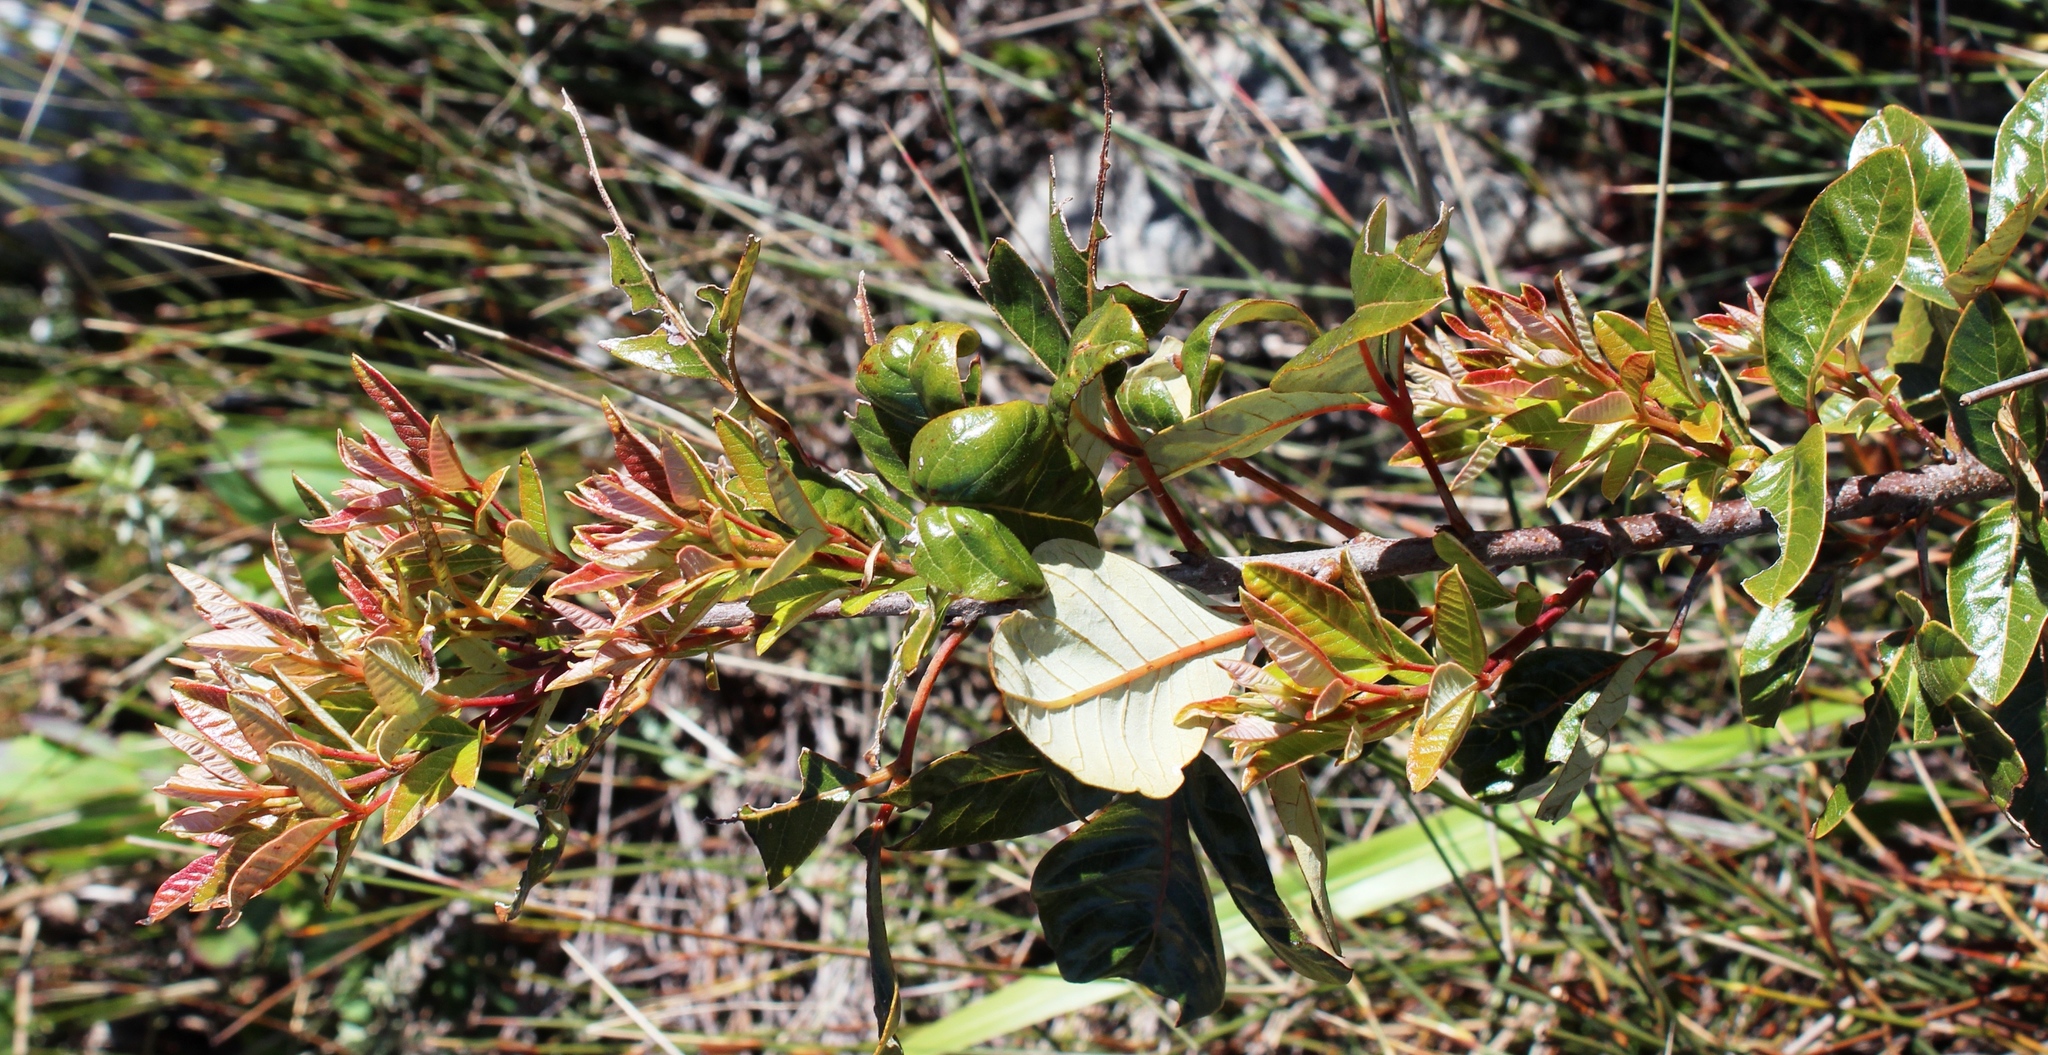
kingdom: Plantae
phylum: Tracheophyta
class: Magnoliopsida
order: Sapindales
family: Anacardiaceae
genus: Searsia
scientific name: Searsia tomentosa
